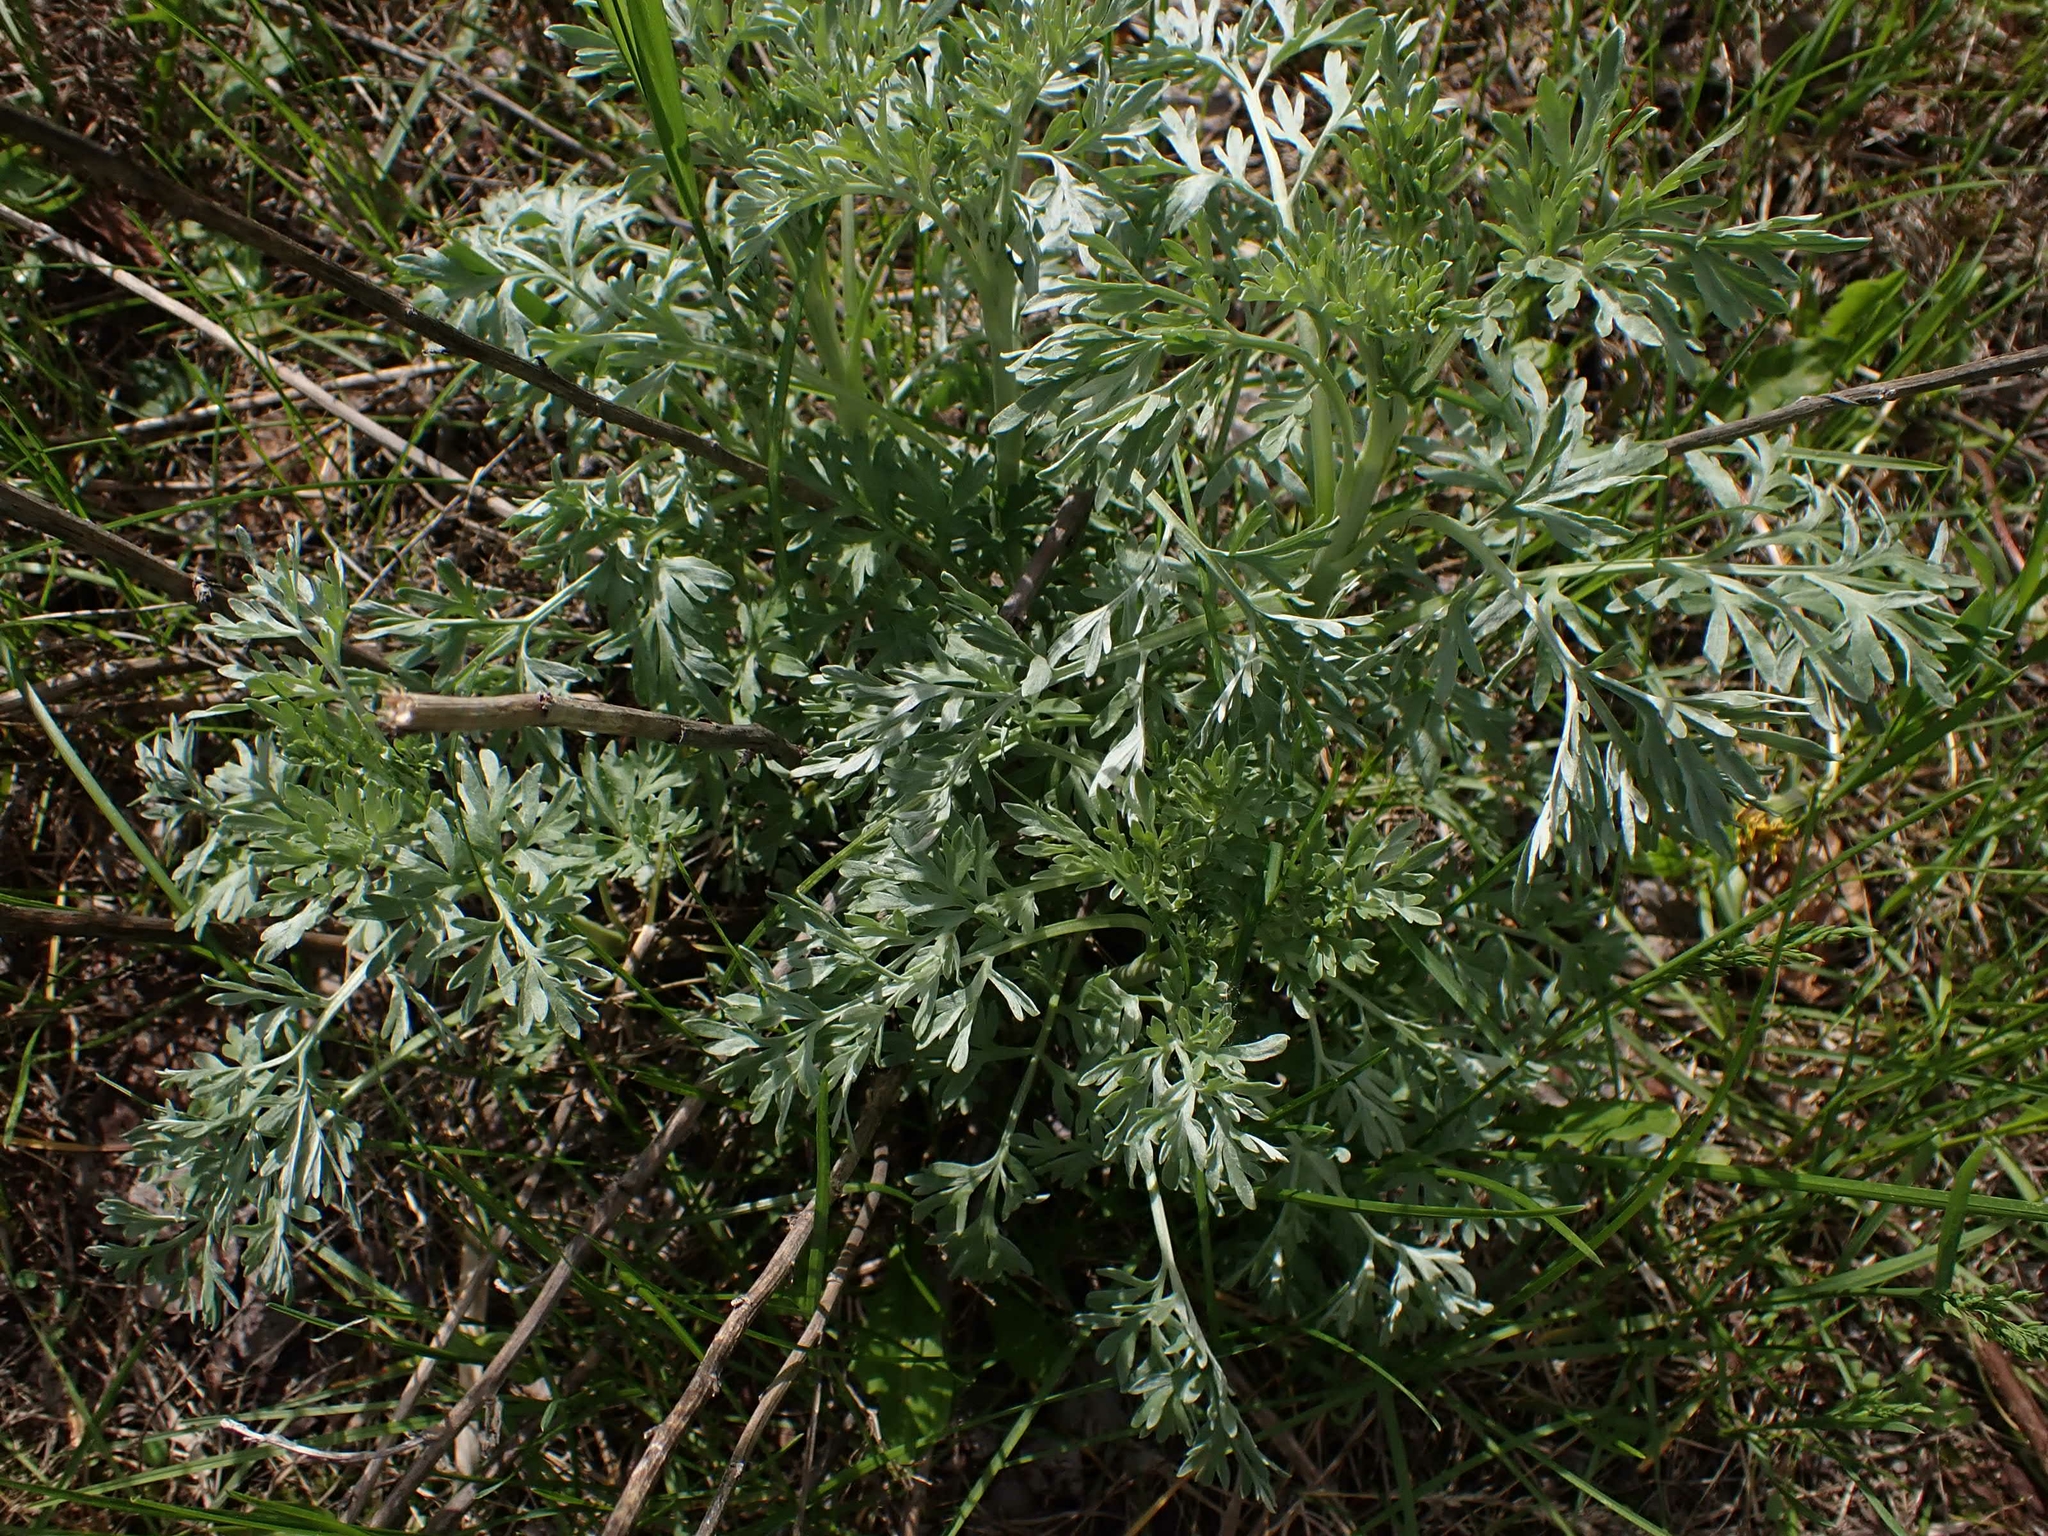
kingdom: Plantae
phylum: Tracheophyta
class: Magnoliopsida
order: Asterales
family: Asteraceae
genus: Artemisia
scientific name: Artemisia absinthium
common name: Wormwood
